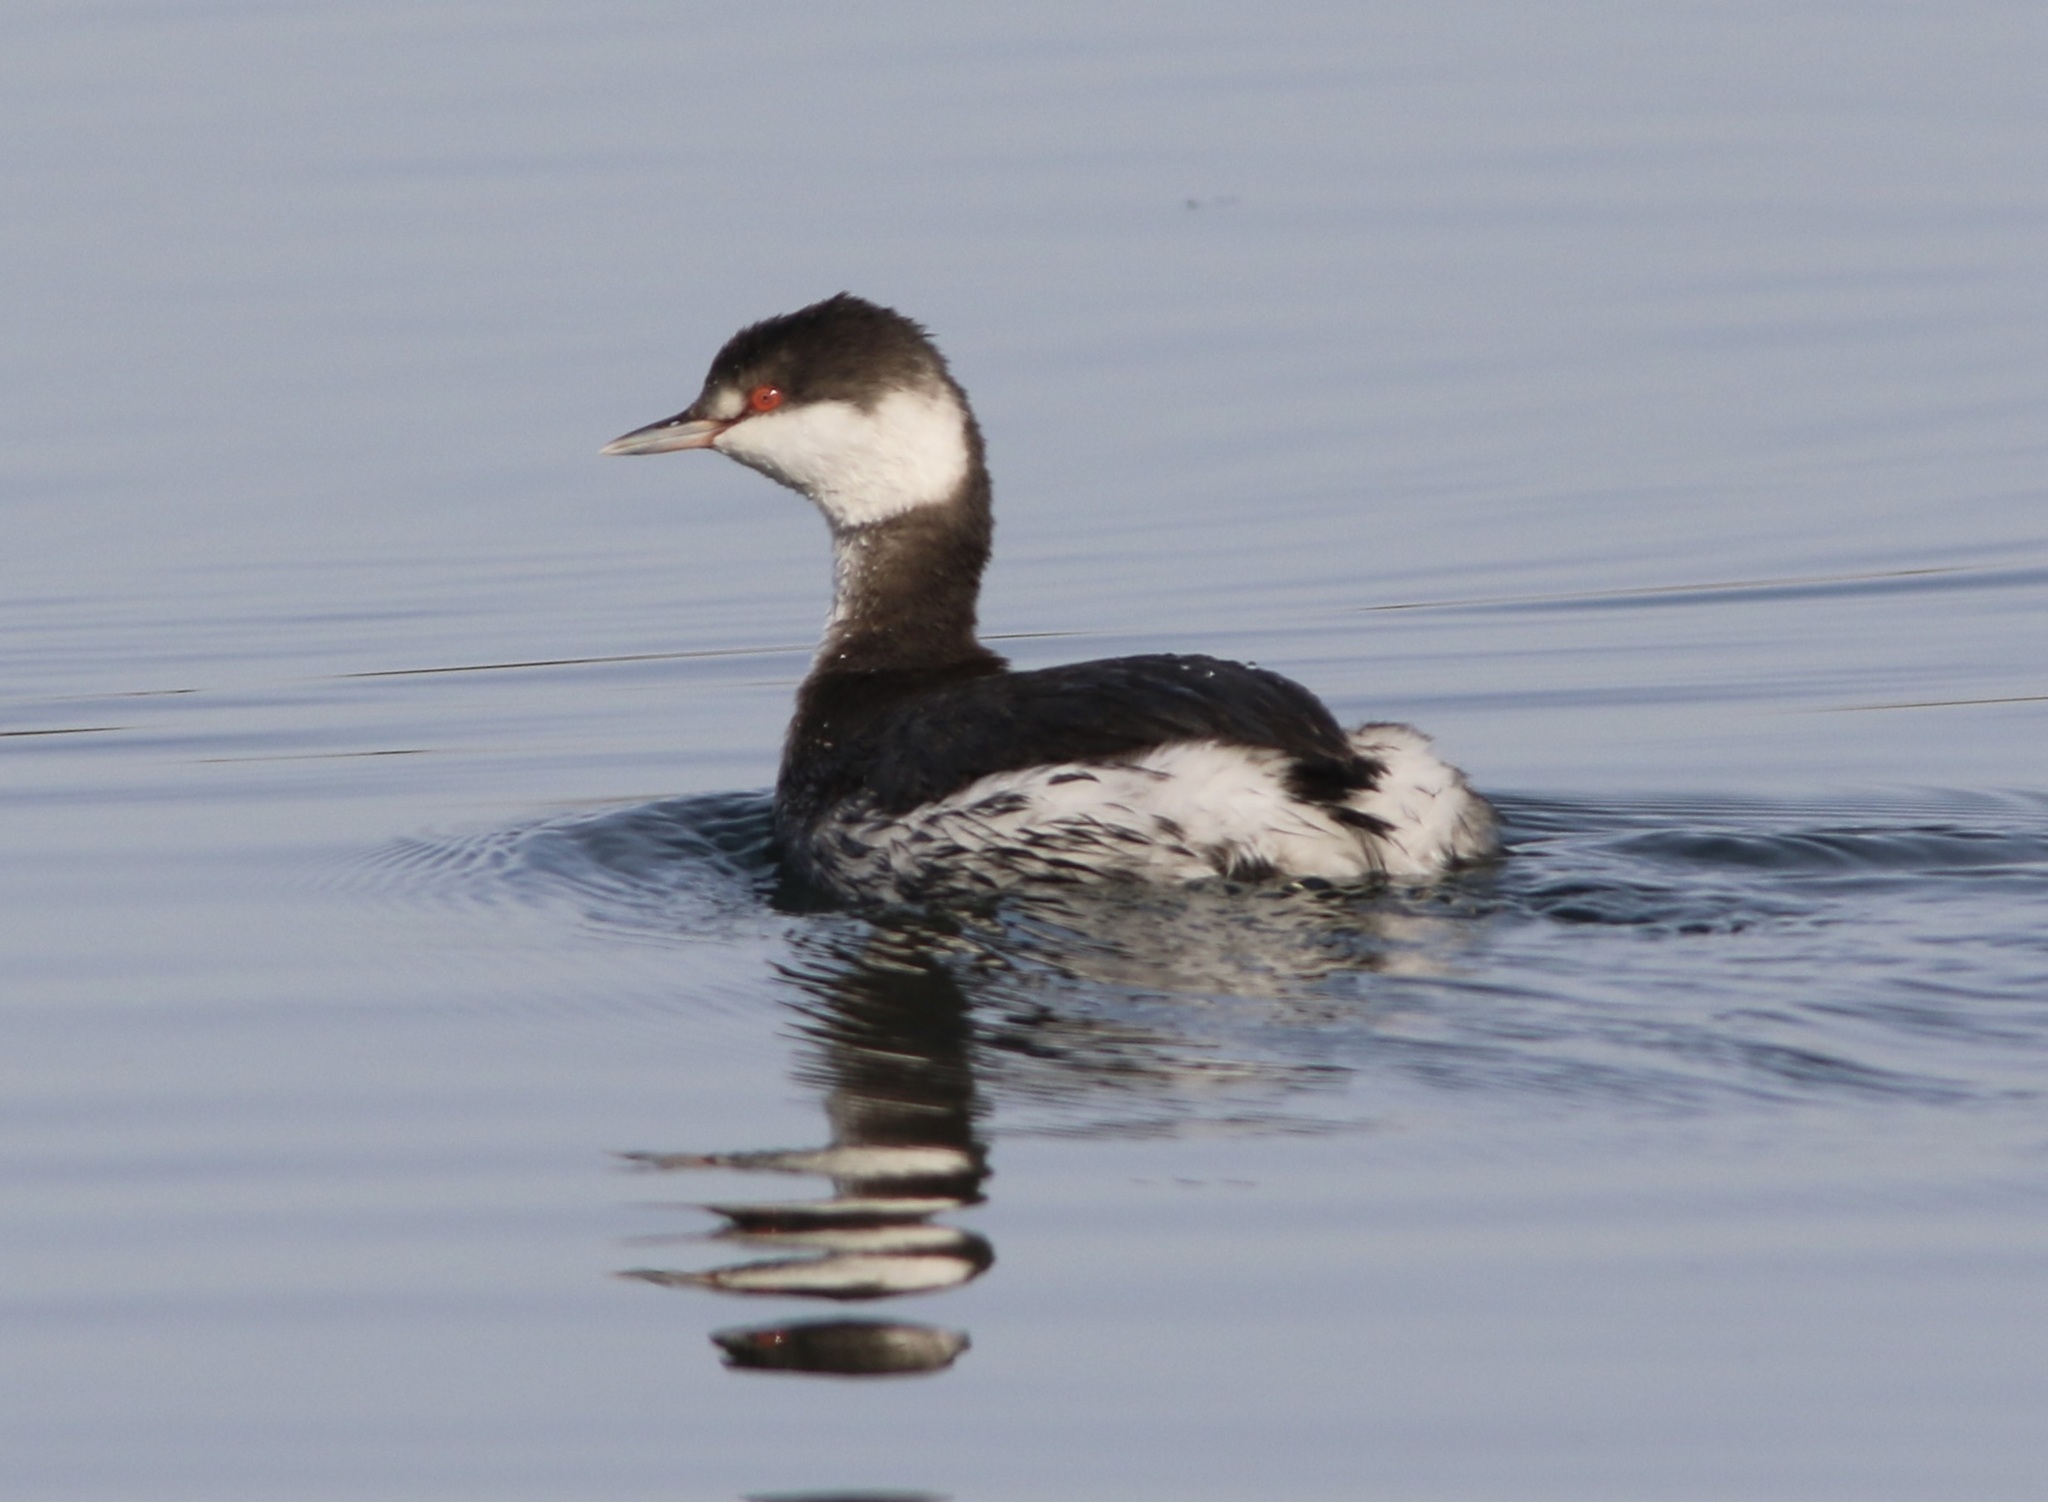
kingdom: Animalia
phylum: Chordata
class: Aves
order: Podicipediformes
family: Podicipedidae
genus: Podiceps
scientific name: Podiceps auritus
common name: Horned grebe
